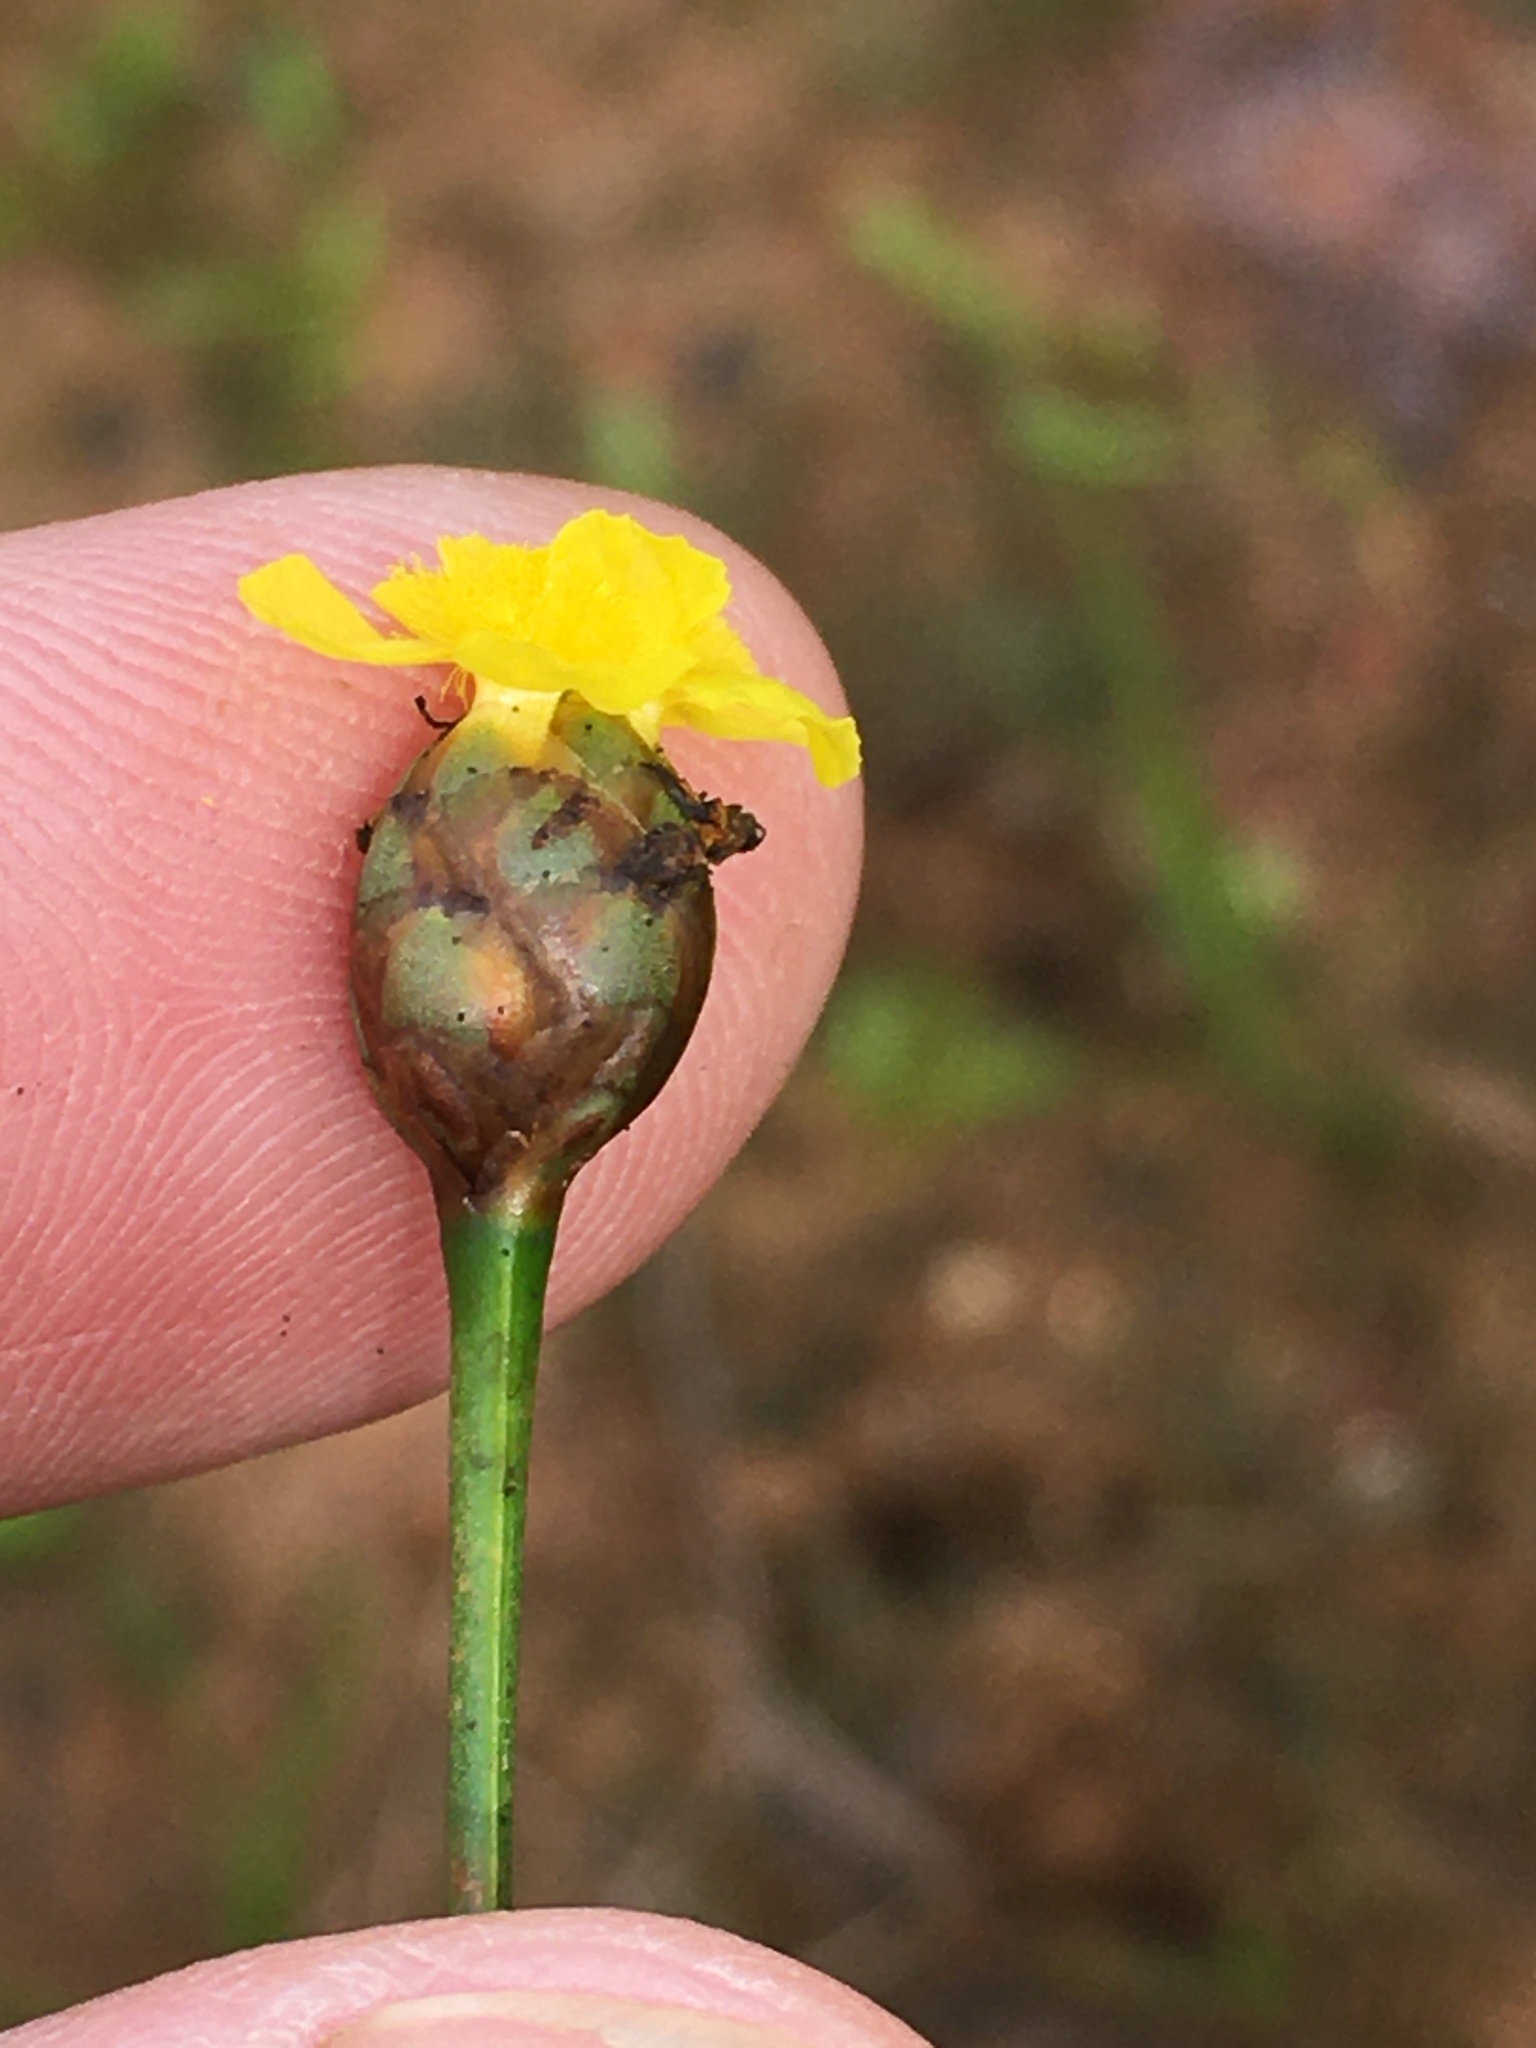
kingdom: Plantae
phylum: Tracheophyta
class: Liliopsida
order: Poales
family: Xyridaceae
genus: Xyris
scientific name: Xyris difformis
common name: Bog yellow-eyed-grass
